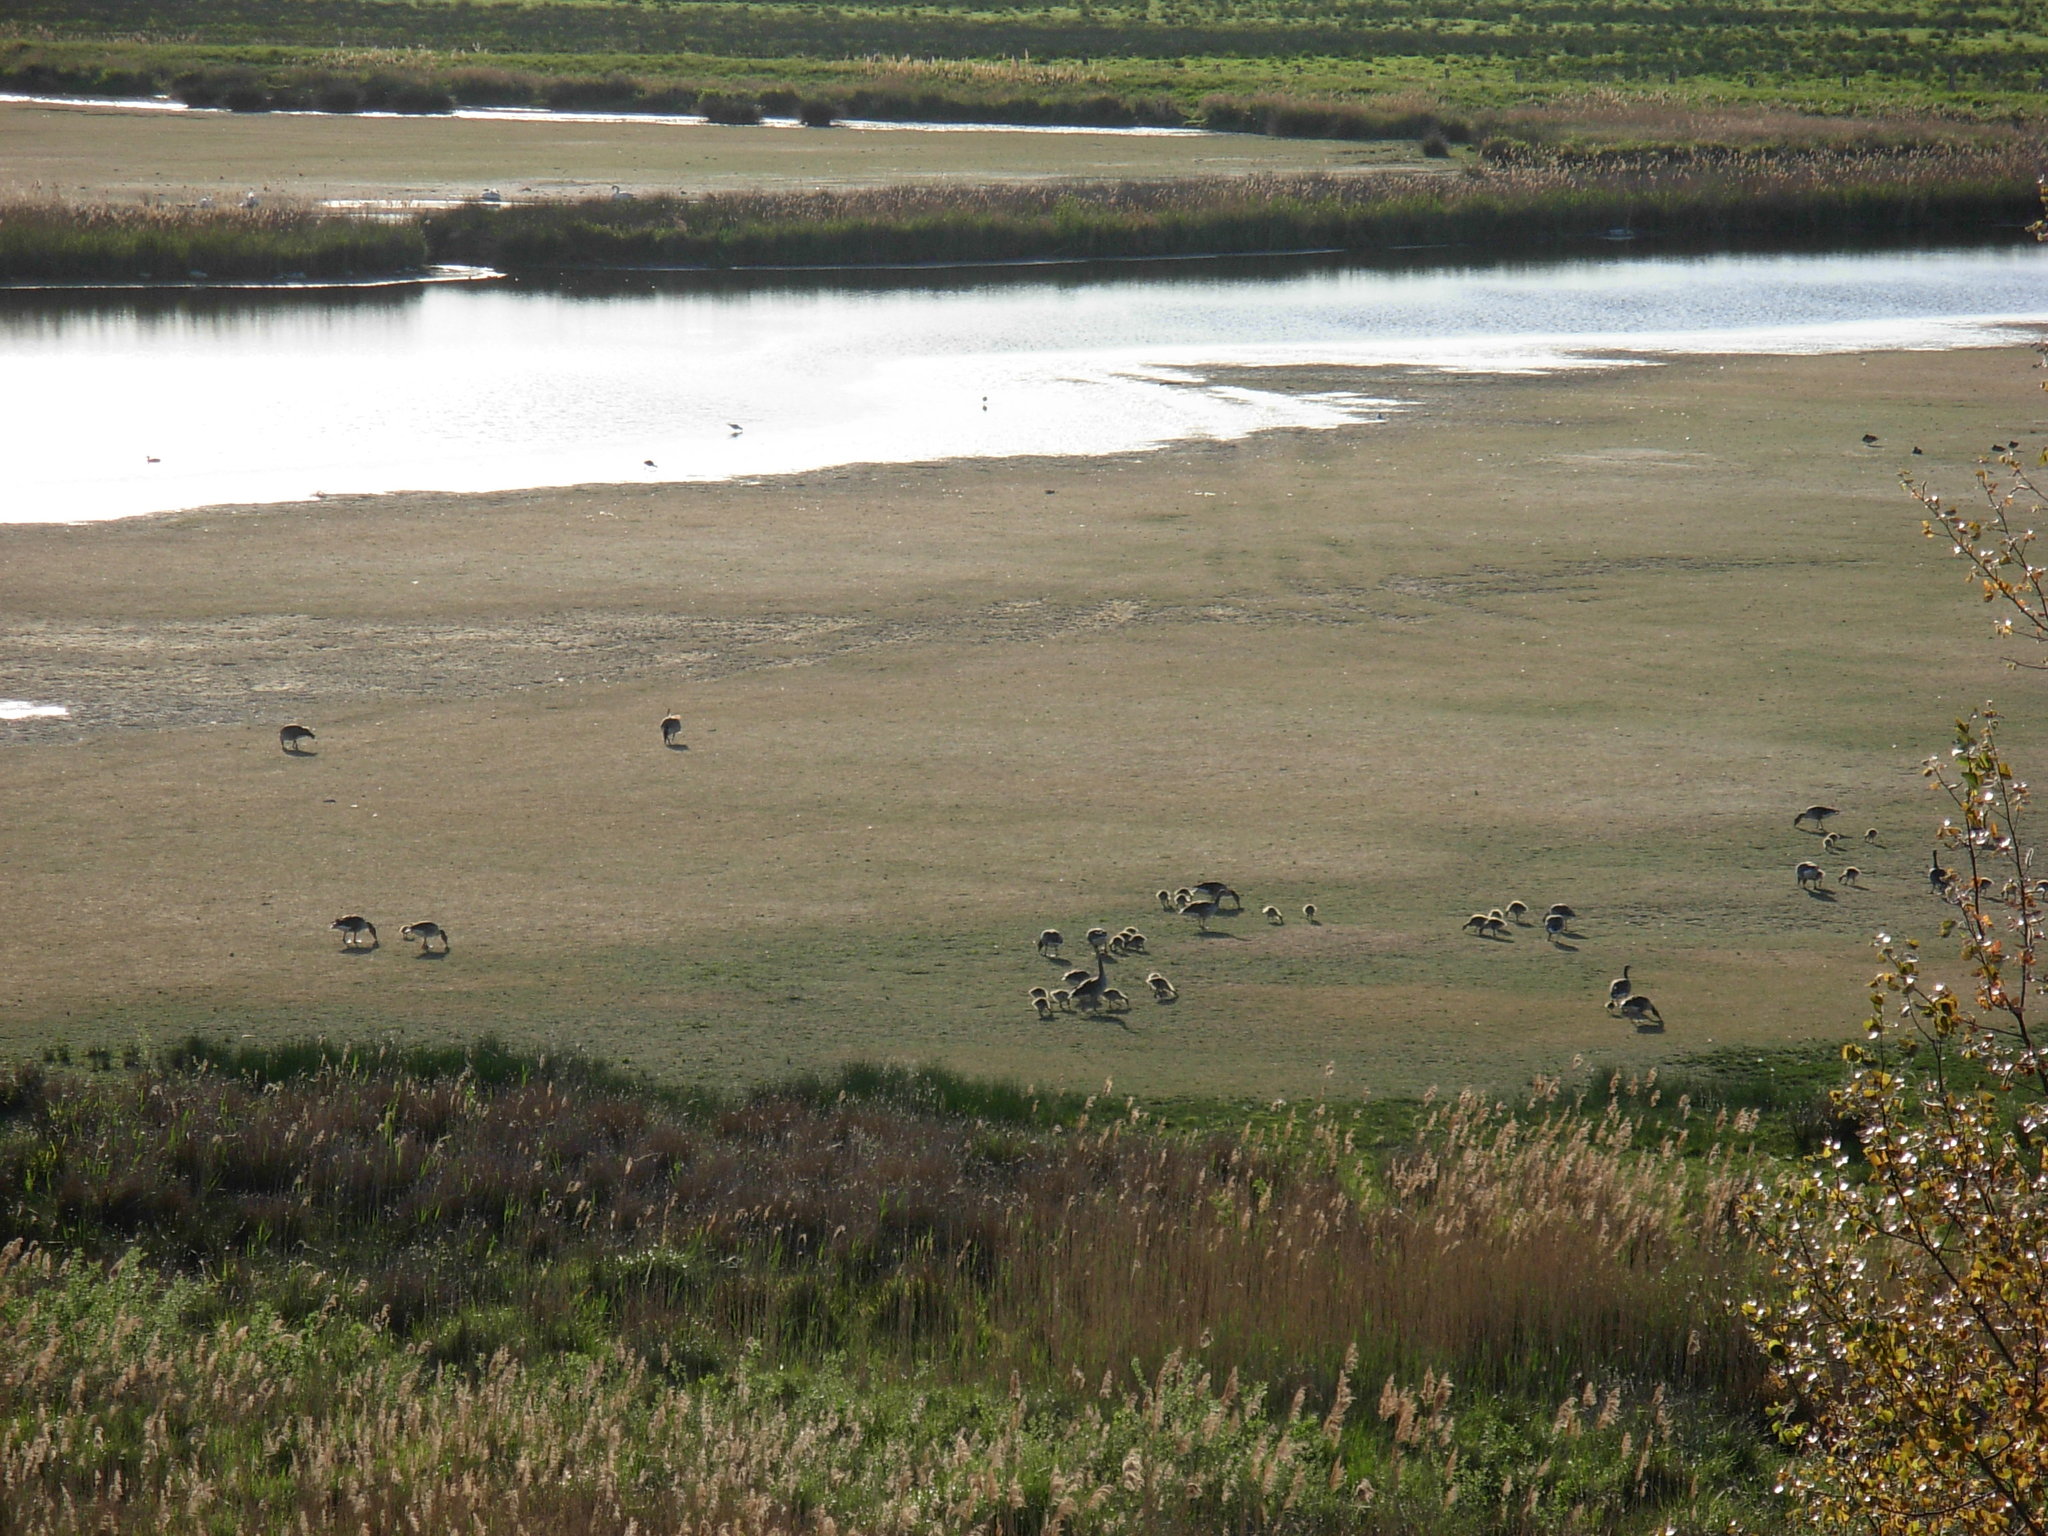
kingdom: Animalia
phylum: Chordata
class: Aves
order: Anseriformes
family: Anatidae
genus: Anser
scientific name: Anser anser
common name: Greylag goose
